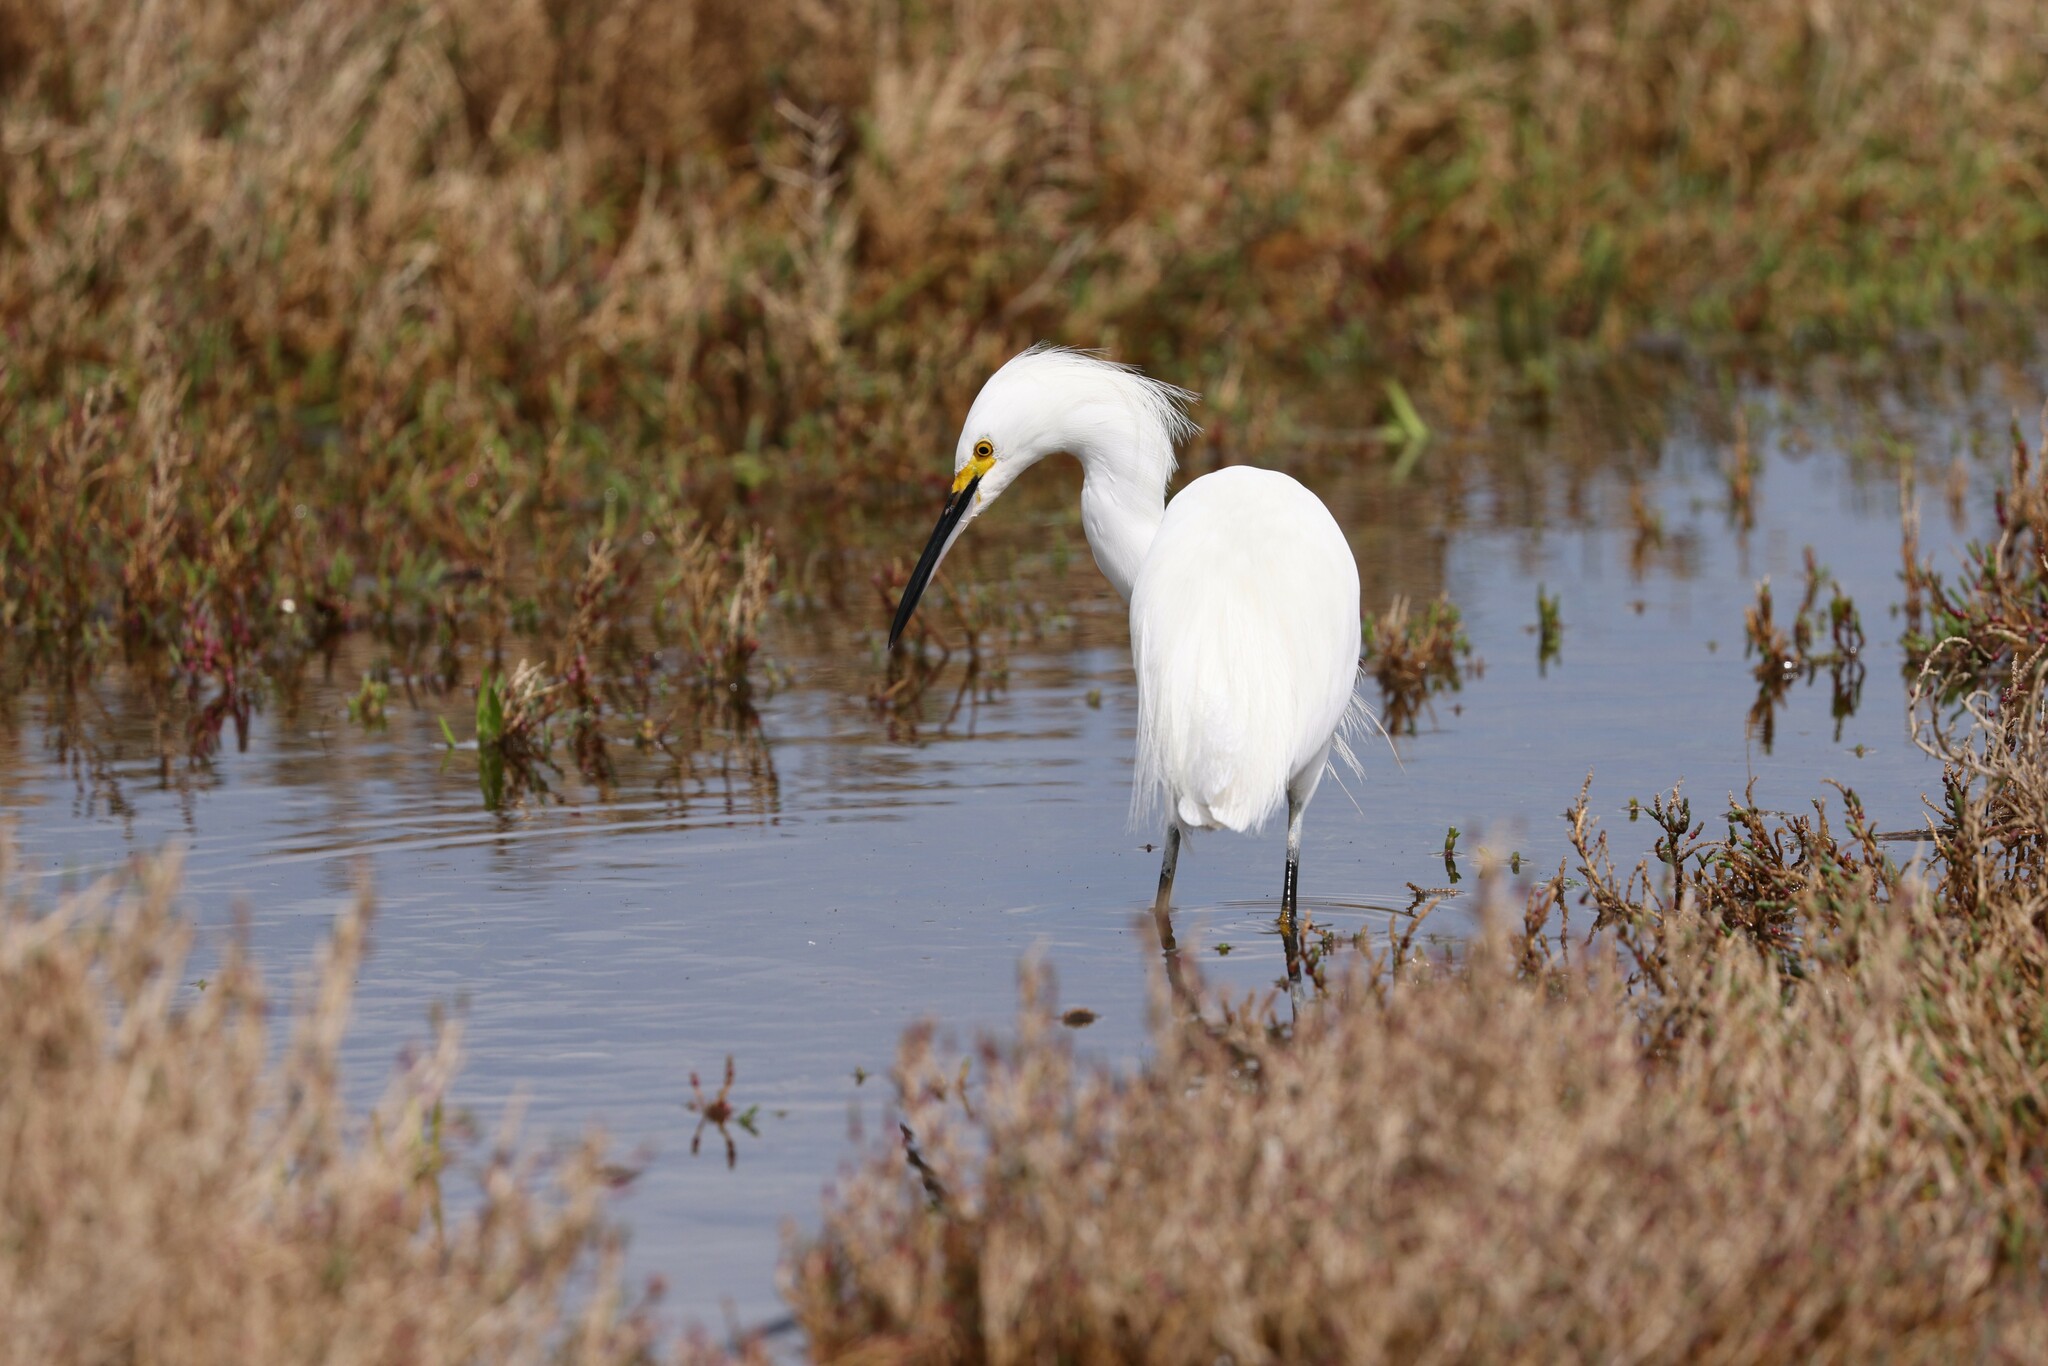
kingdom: Animalia
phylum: Chordata
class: Aves
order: Pelecaniformes
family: Ardeidae
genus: Egretta
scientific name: Egretta thula
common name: Snowy egret
